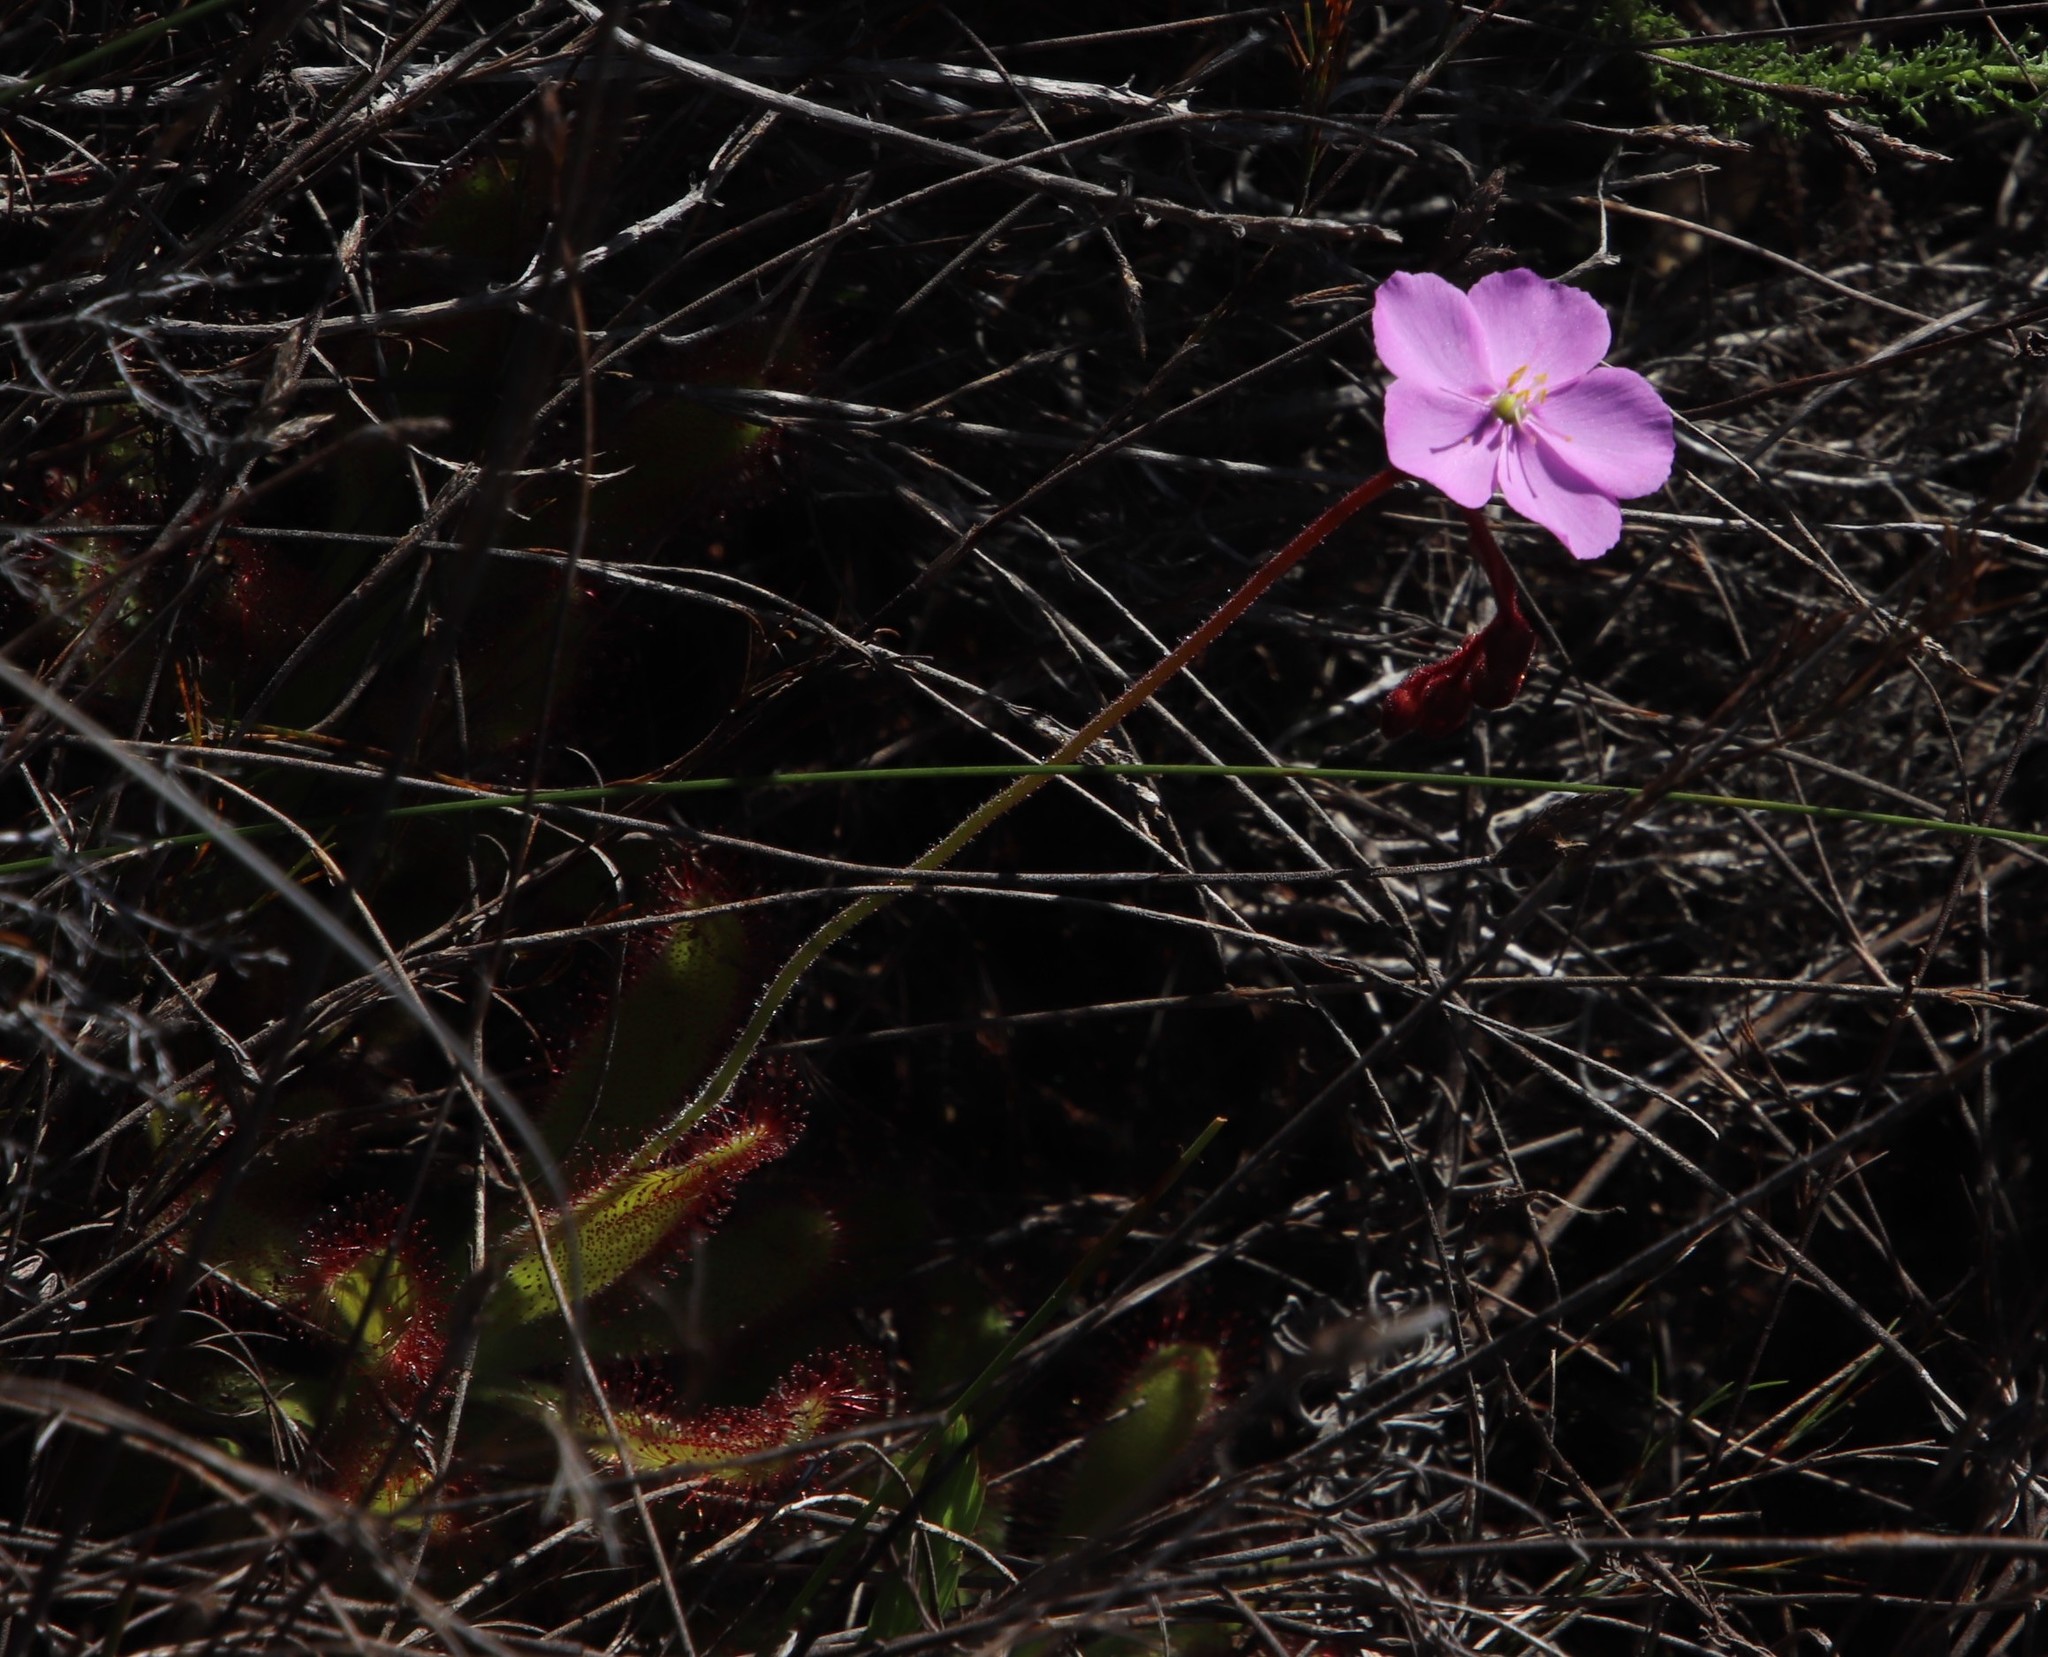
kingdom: Plantae
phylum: Tracheophyta
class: Magnoliopsida
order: Caryophyllales
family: Droseraceae
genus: Drosera
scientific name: Drosera hilaris
